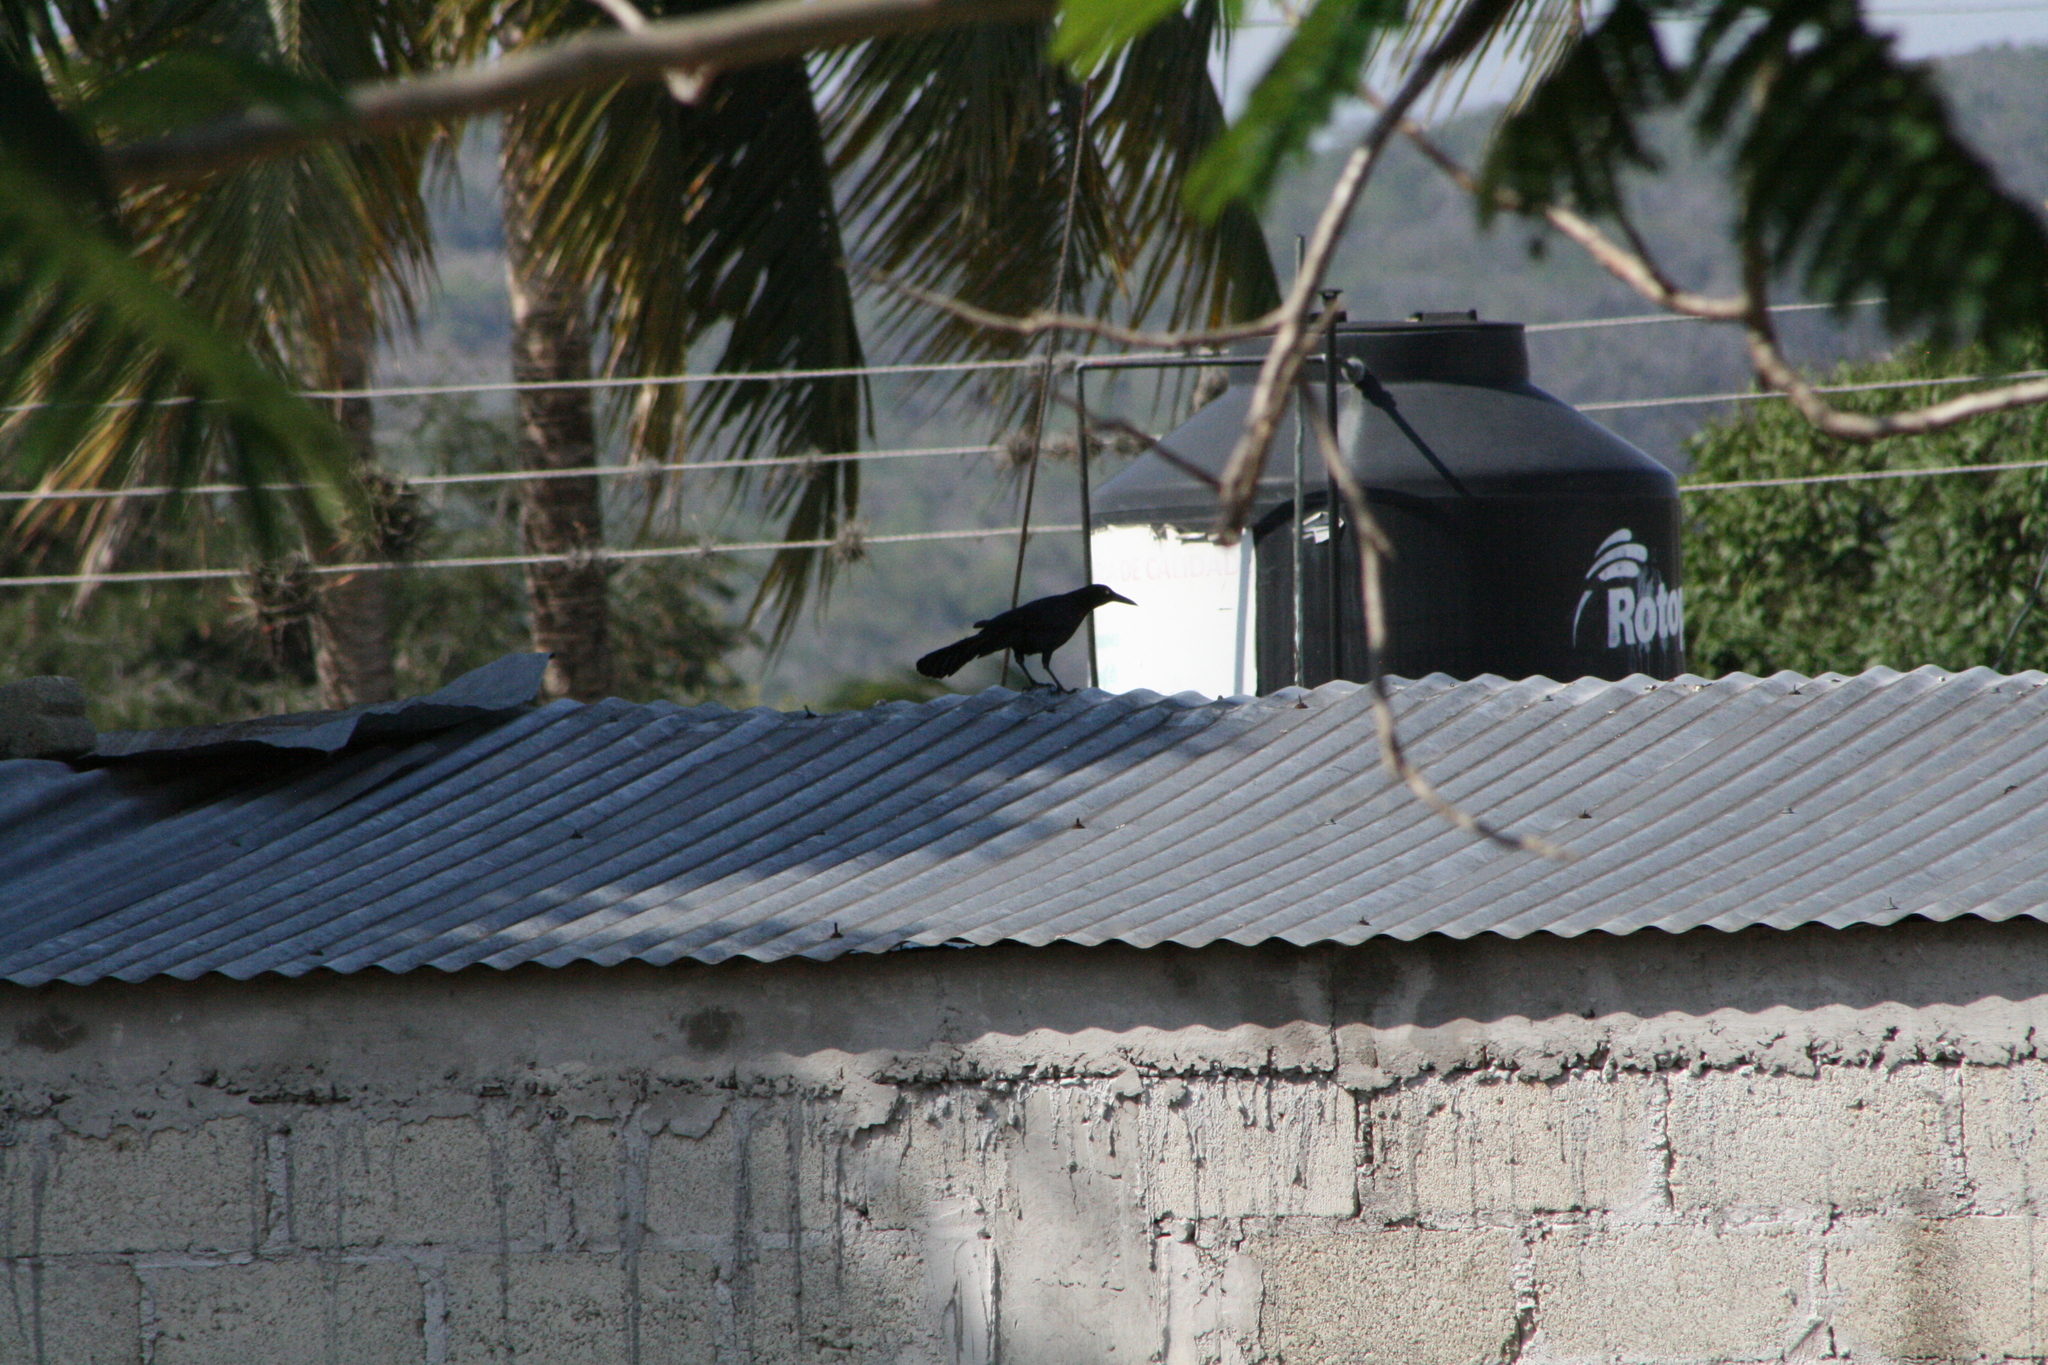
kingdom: Animalia
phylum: Chordata
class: Aves
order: Passeriformes
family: Icteridae
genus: Quiscalus
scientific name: Quiscalus mexicanus
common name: Great-tailed grackle
